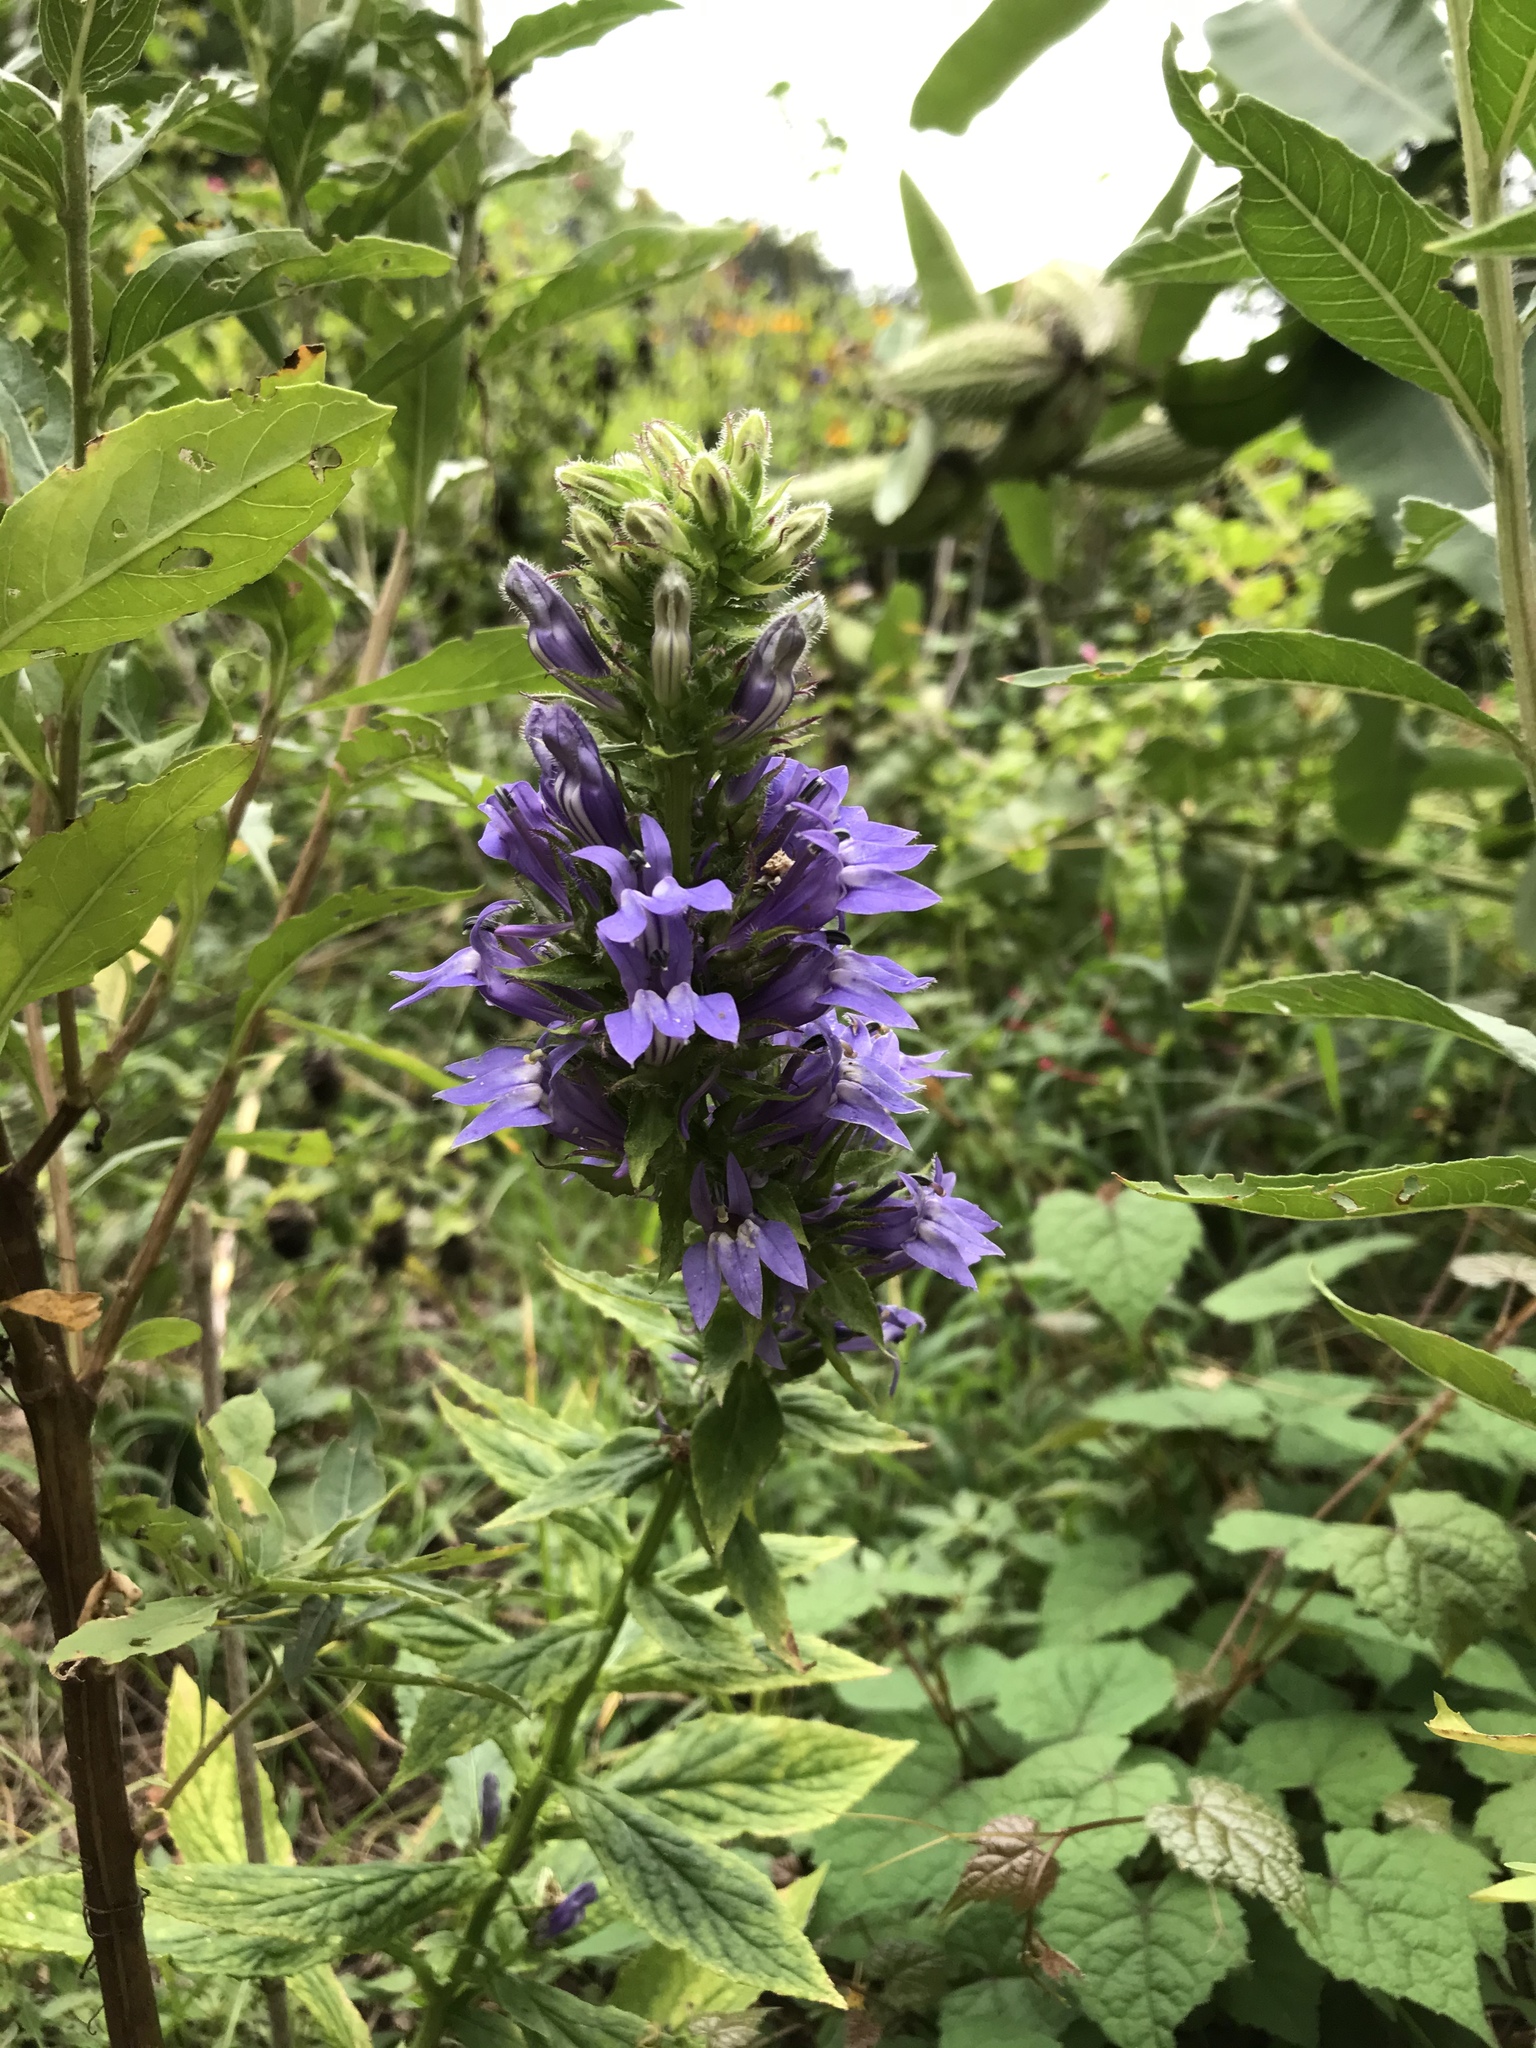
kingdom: Plantae
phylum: Tracheophyta
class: Magnoliopsida
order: Asterales
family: Campanulaceae
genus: Lobelia
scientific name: Lobelia siphilitica
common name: Great lobelia
